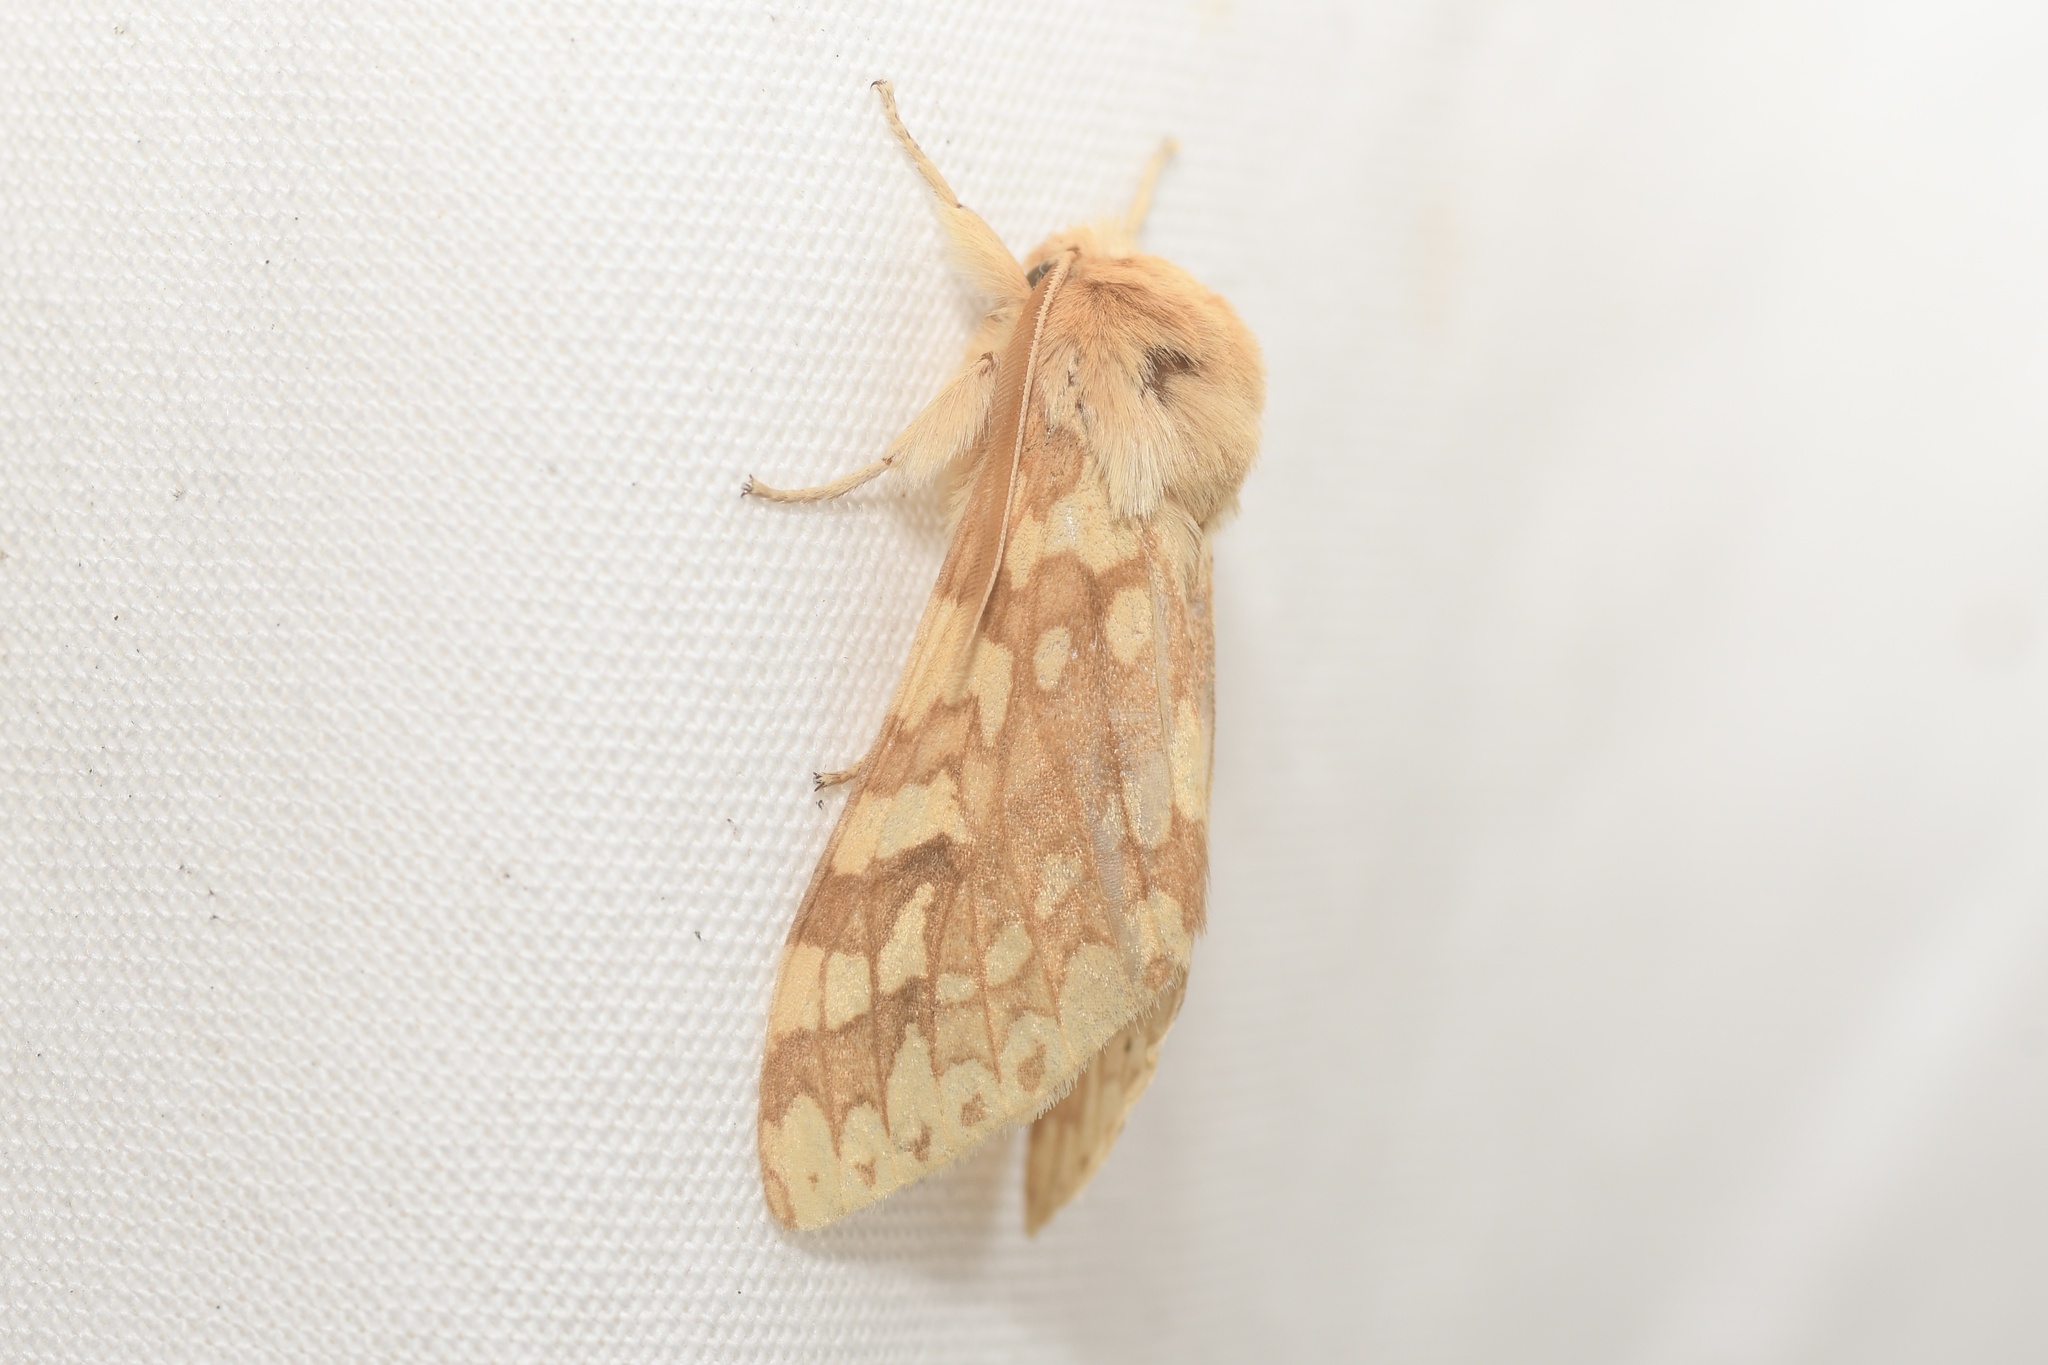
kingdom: Animalia
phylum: Arthropoda
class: Insecta
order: Lepidoptera
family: Erebidae
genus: Lophocampa
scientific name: Lophocampa maculata
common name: Spotted tussock moth
